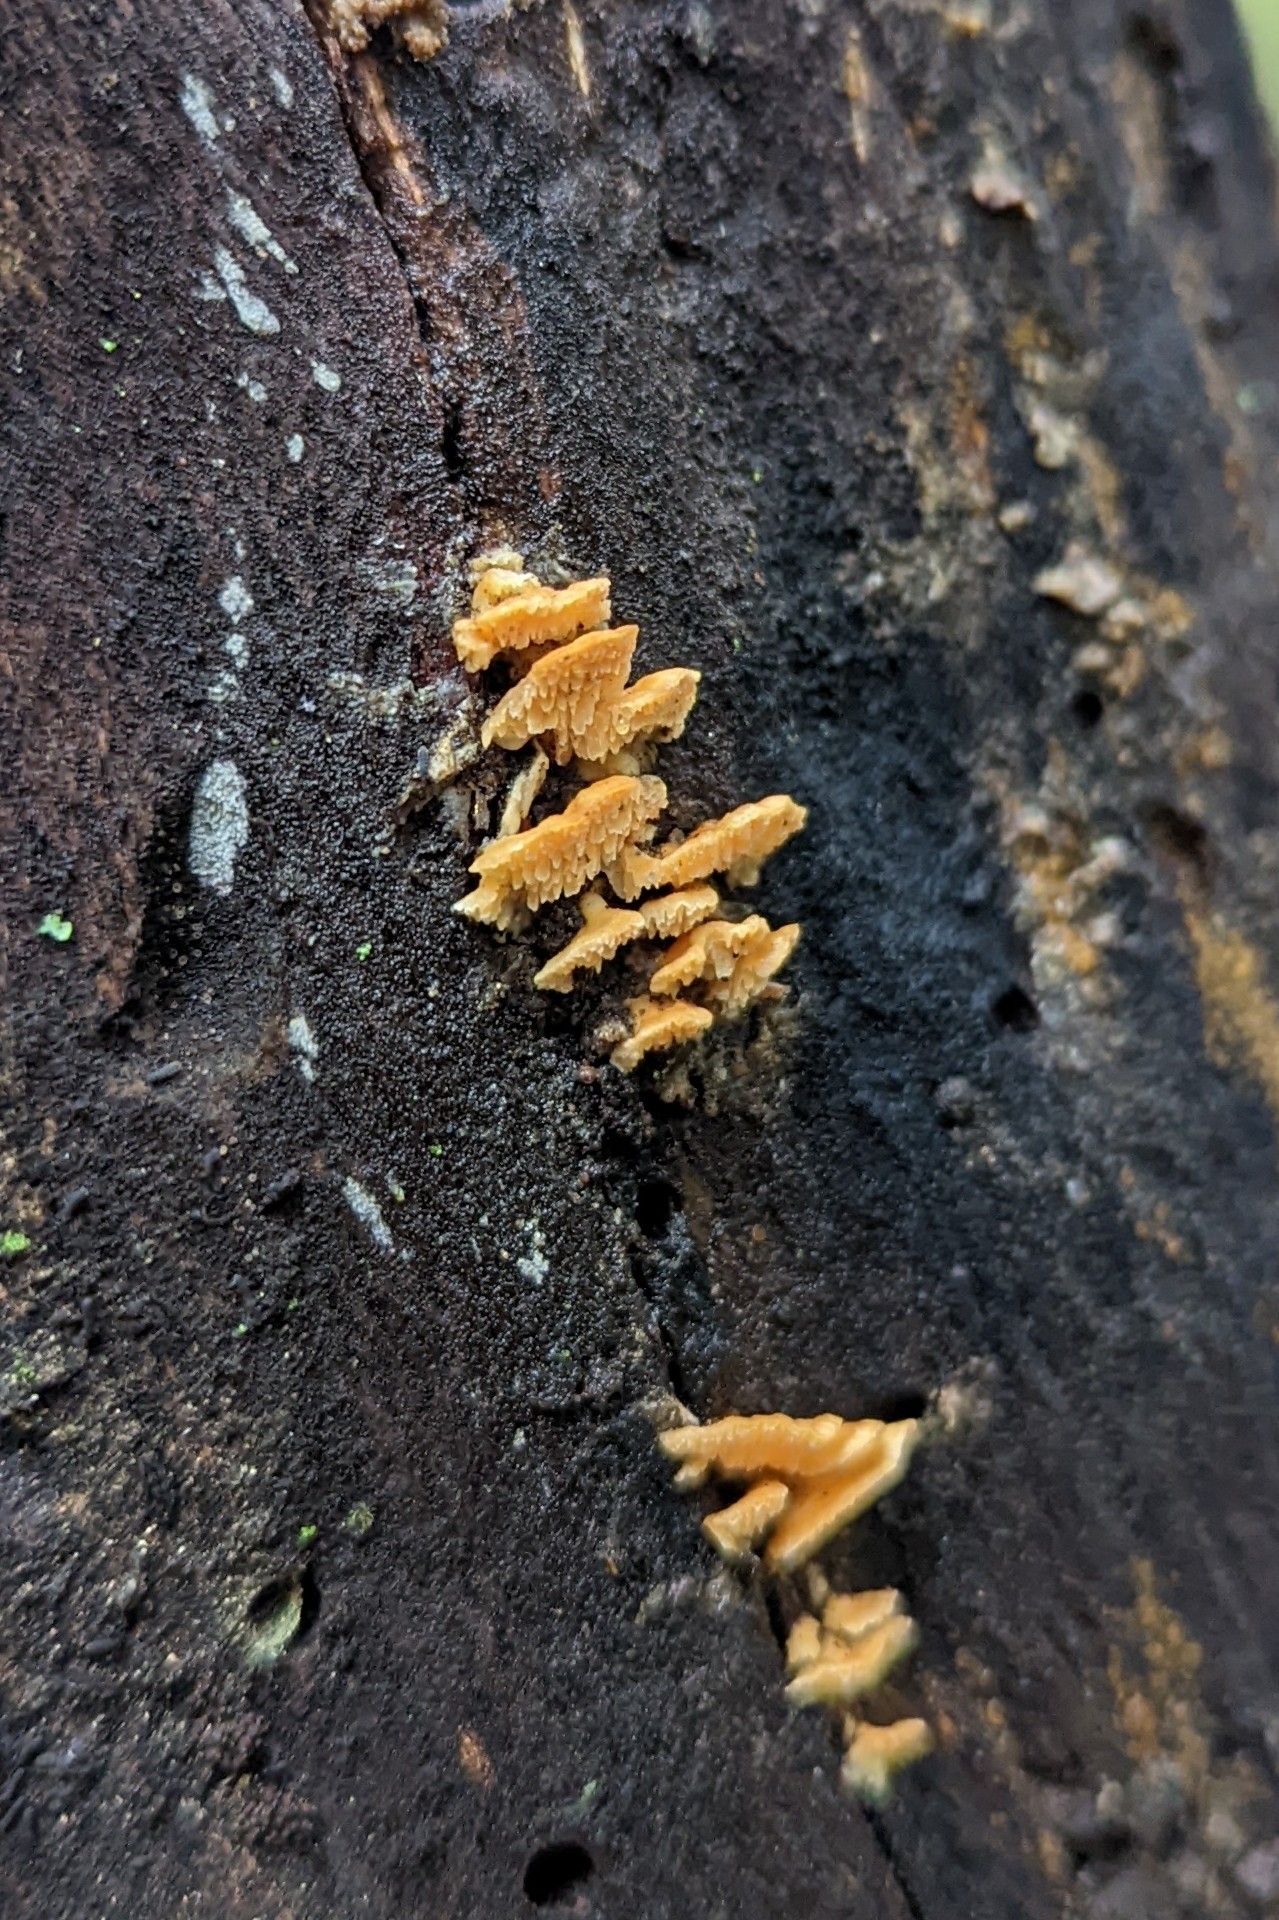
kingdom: Fungi
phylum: Basidiomycota
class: Agaricomycetes
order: Polyporales
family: Cerrenaceae
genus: Cerrena
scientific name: Cerrena zonata
